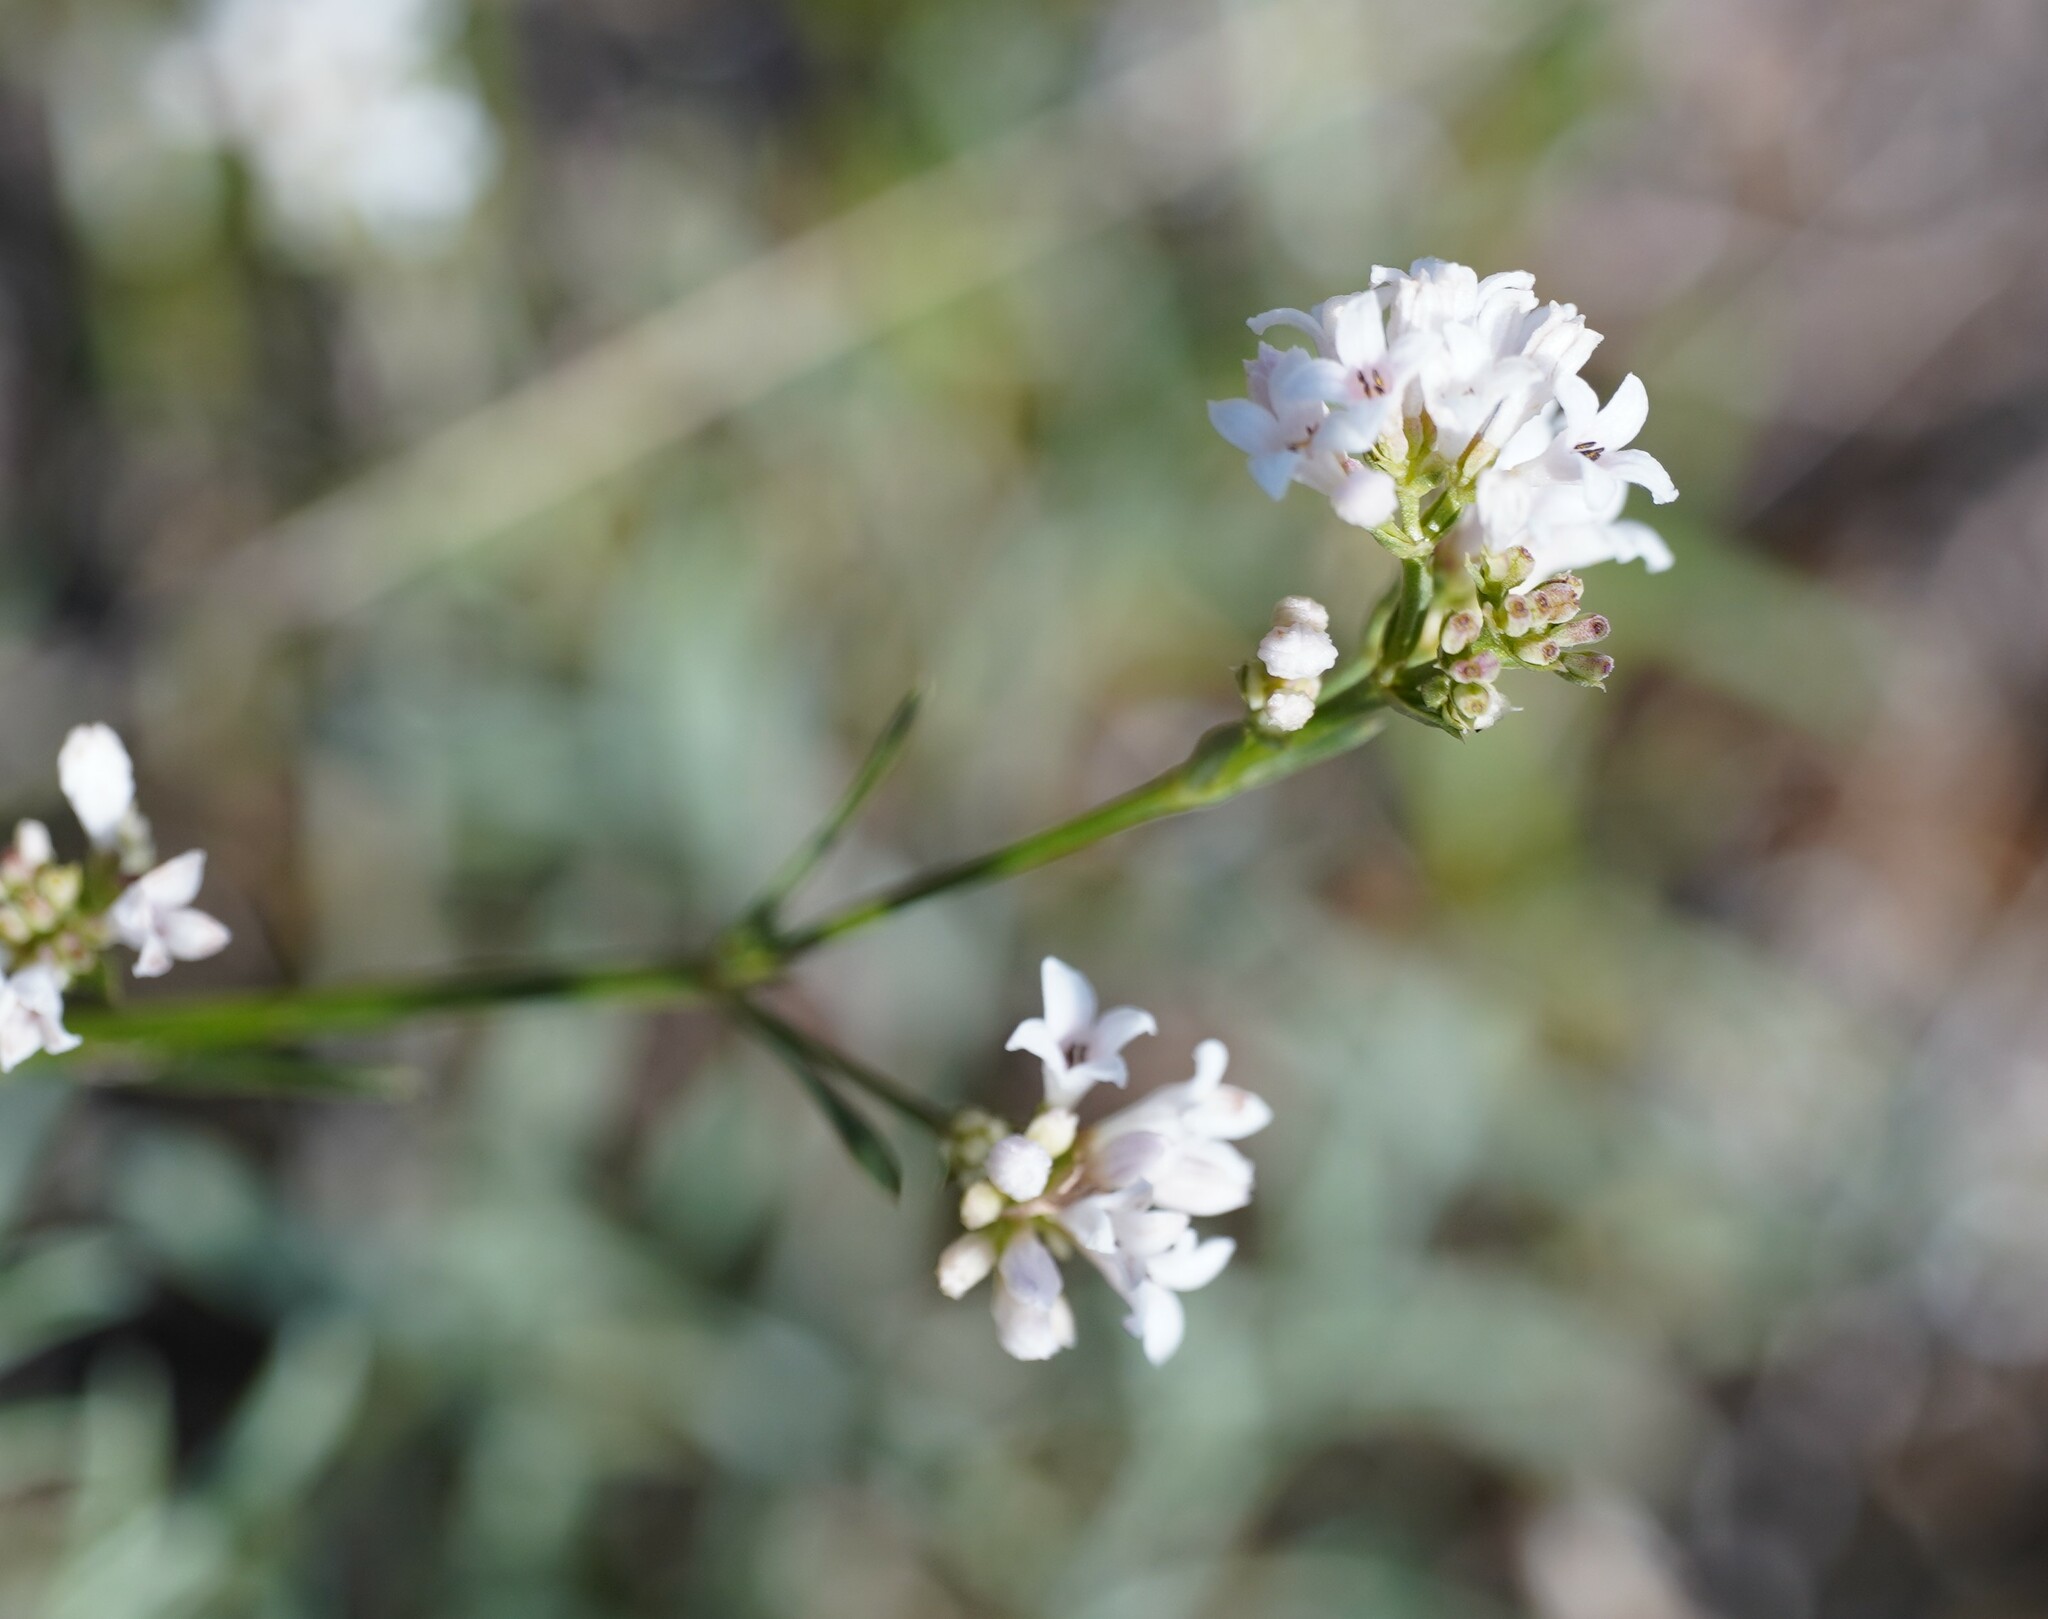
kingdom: Plantae
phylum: Tracheophyta
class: Magnoliopsida
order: Gentianales
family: Rubiaceae
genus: Cynanchica
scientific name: Cynanchica pyrenaica
